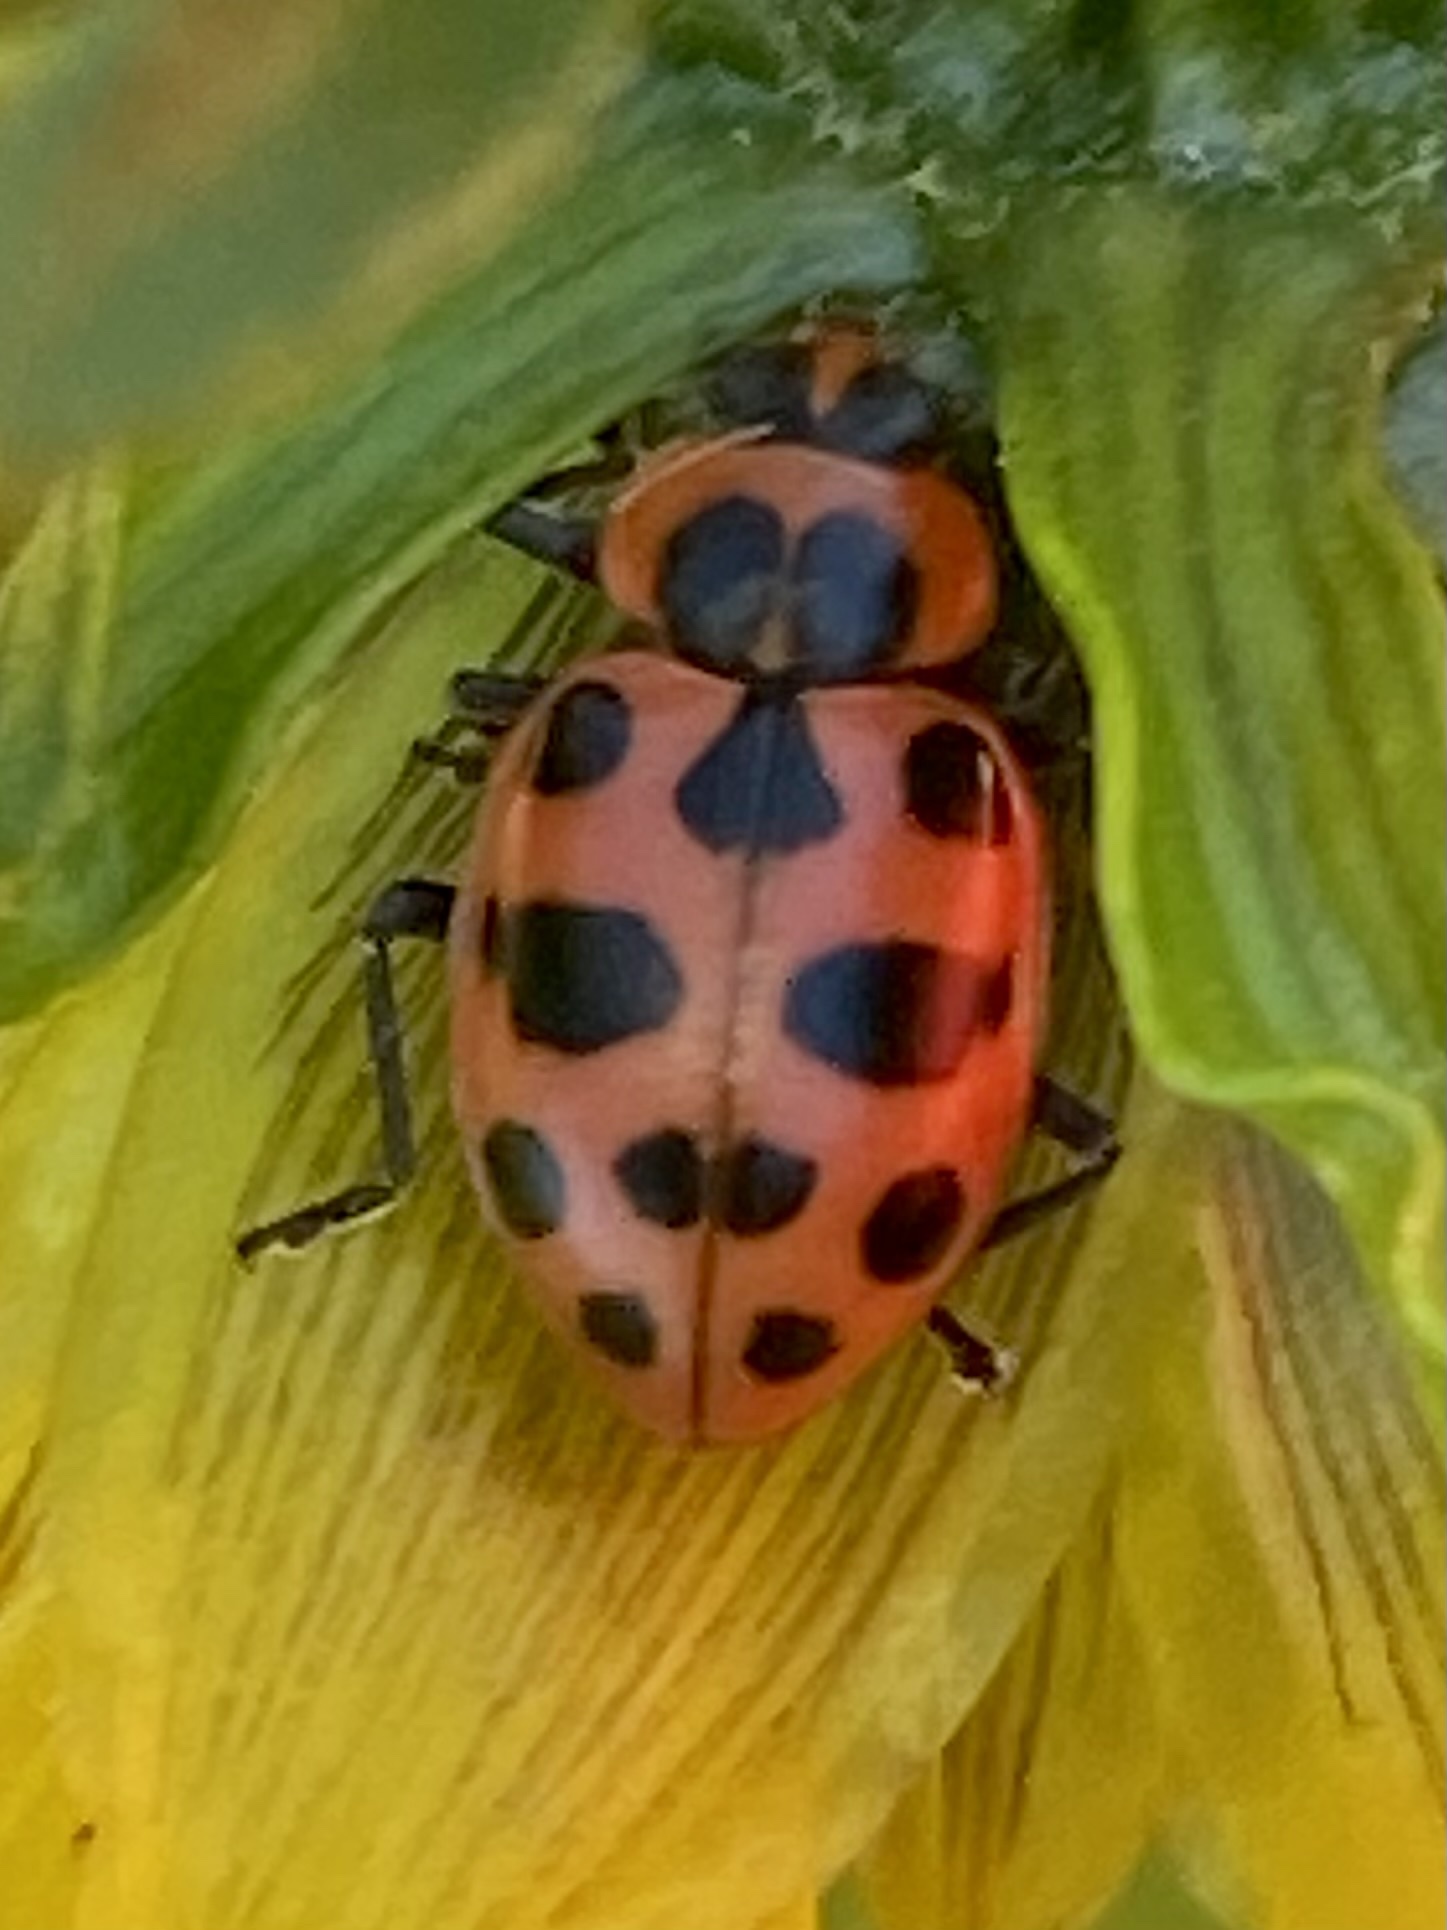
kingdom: Animalia
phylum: Arthropoda
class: Insecta
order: Coleoptera
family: Coccinellidae
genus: Coleomegilla
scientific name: Coleomegilla maculata
